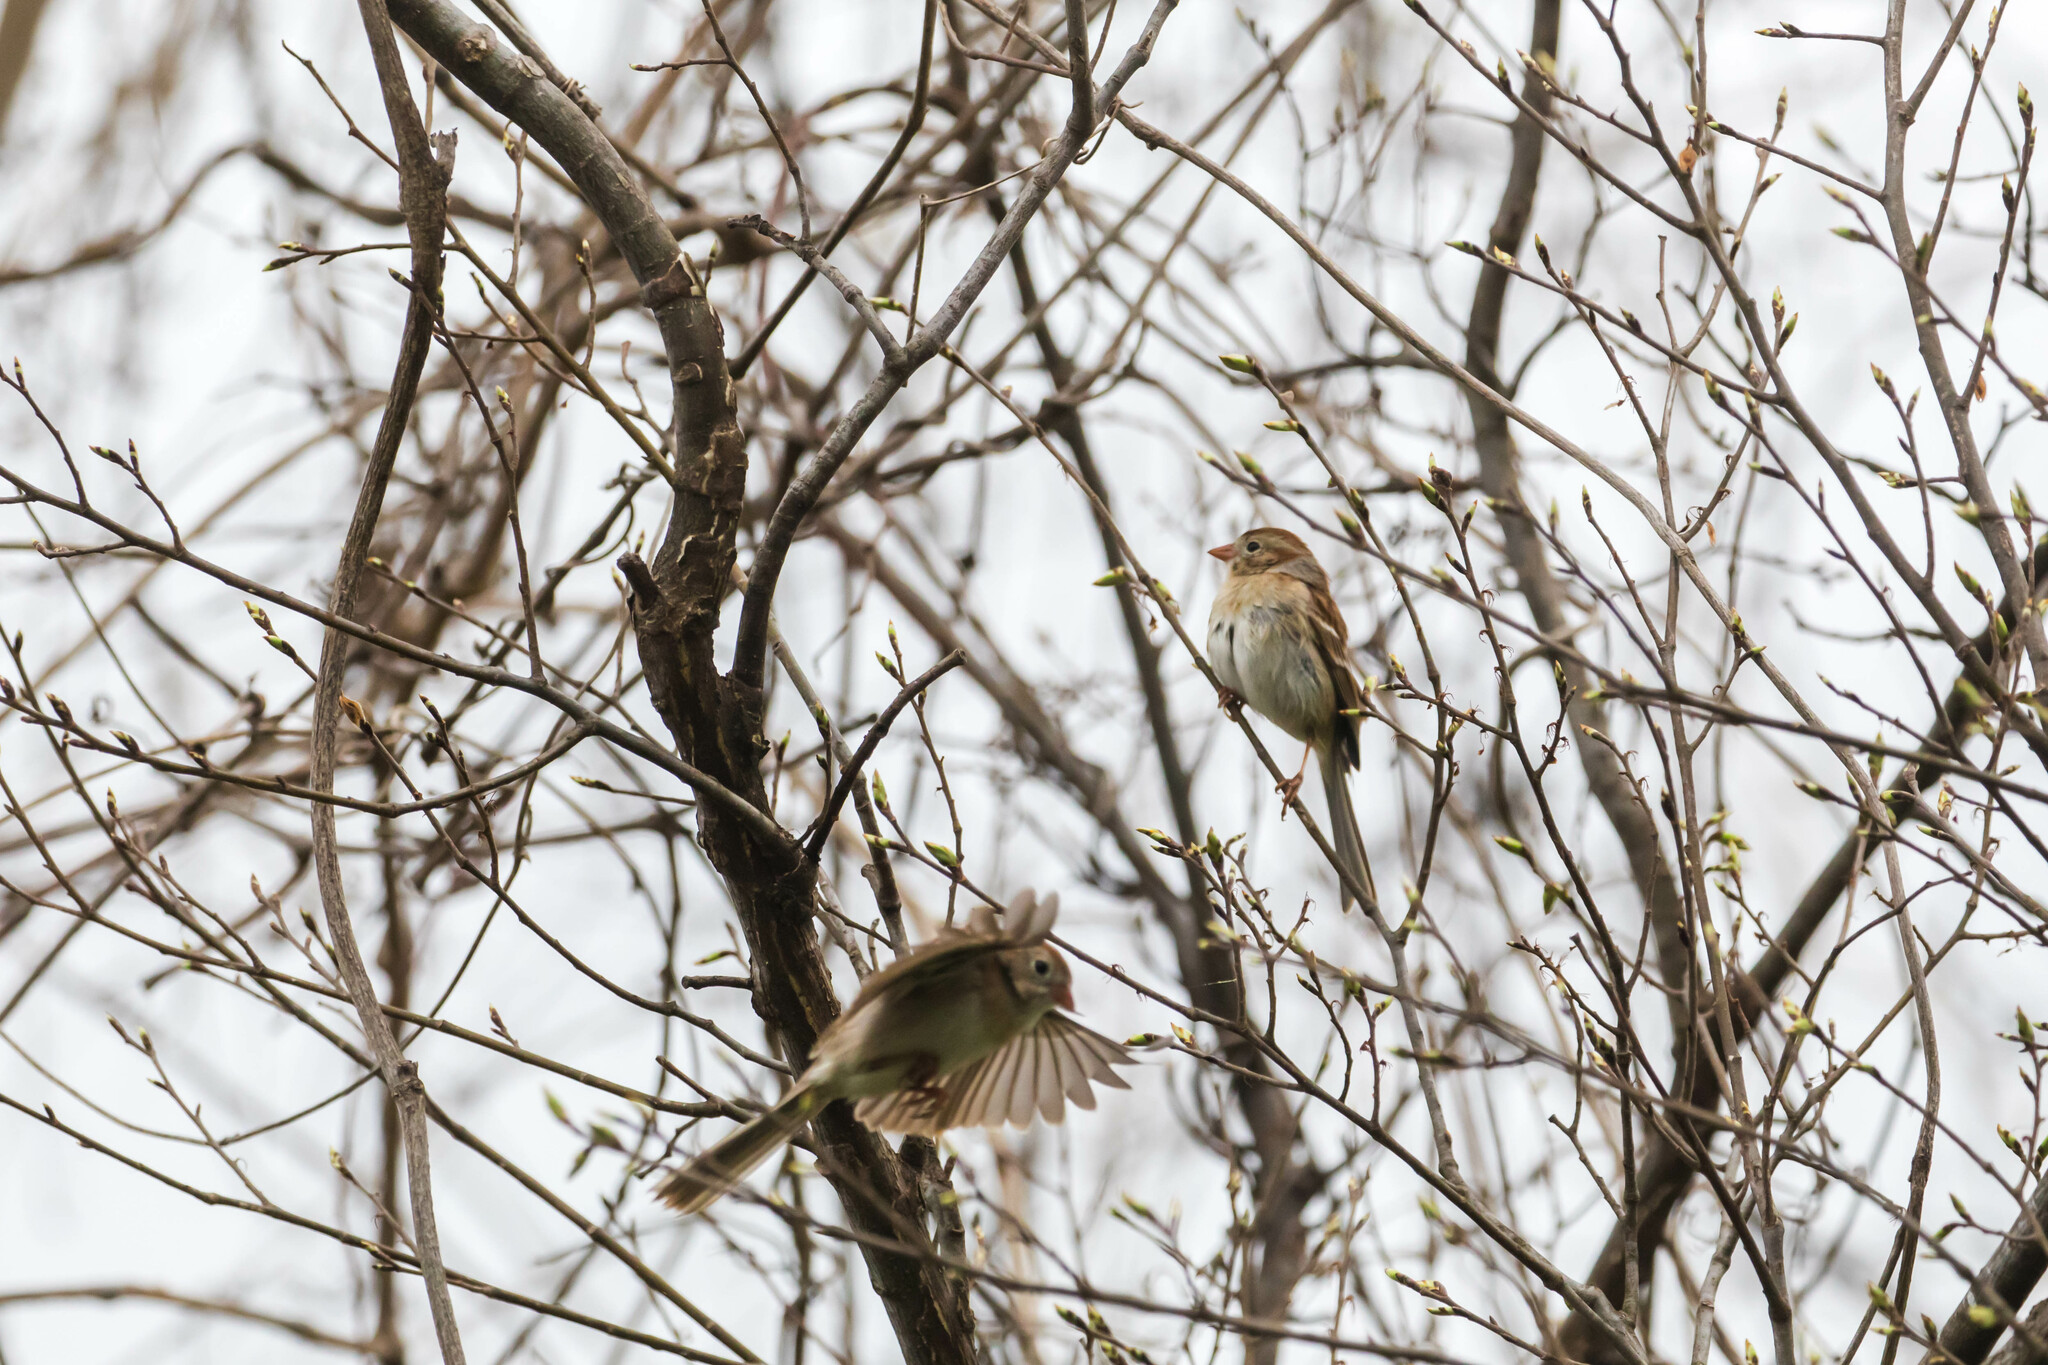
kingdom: Animalia
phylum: Chordata
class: Aves
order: Passeriformes
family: Passerellidae
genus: Spizella
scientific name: Spizella pusilla
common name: Field sparrow
